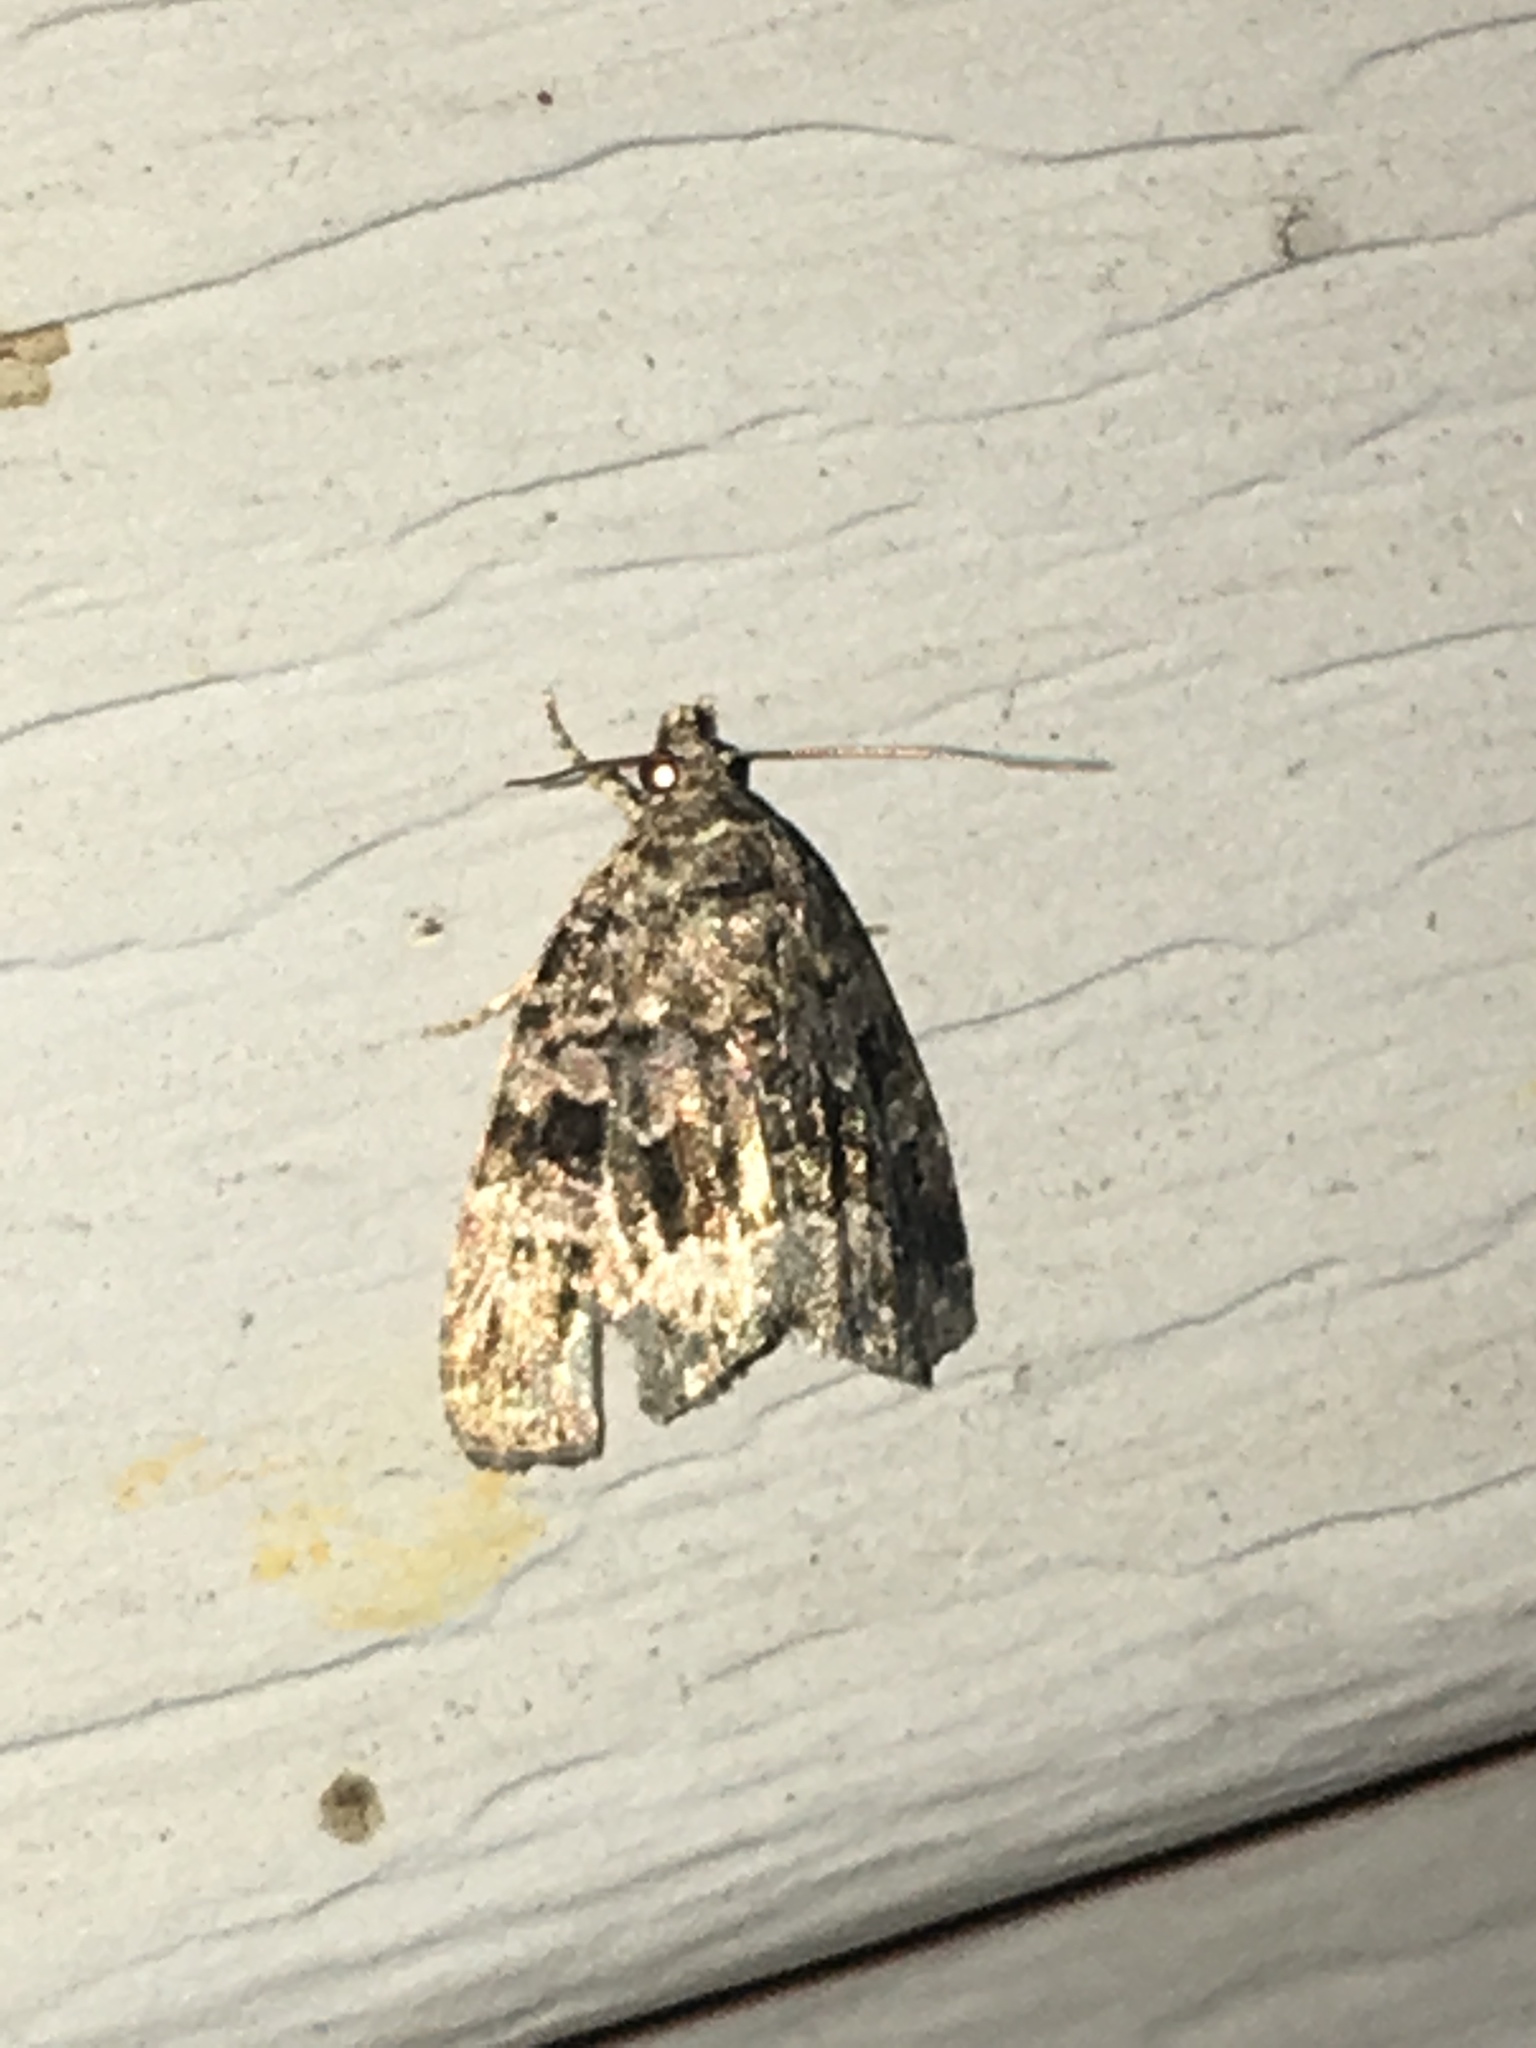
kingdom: Animalia
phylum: Arthropoda
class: Insecta
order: Lepidoptera
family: Noctuidae
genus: Protodeltote
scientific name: Protodeltote muscosula
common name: Large mossy glyph
